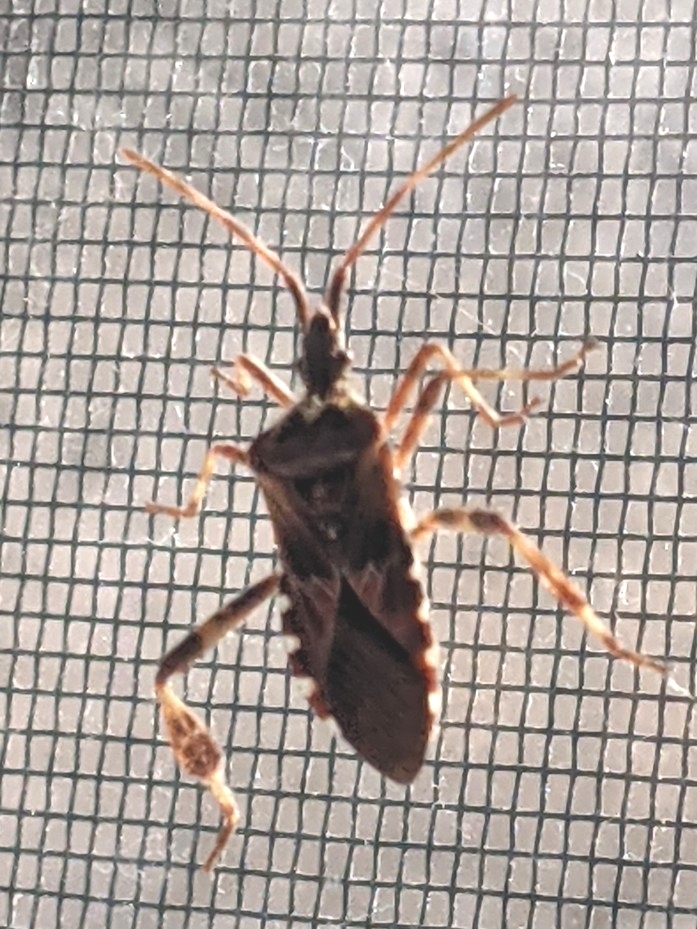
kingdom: Animalia
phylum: Arthropoda
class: Insecta
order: Hemiptera
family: Coreidae
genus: Leptoglossus
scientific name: Leptoglossus occidentalis
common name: Western conifer-seed bug
